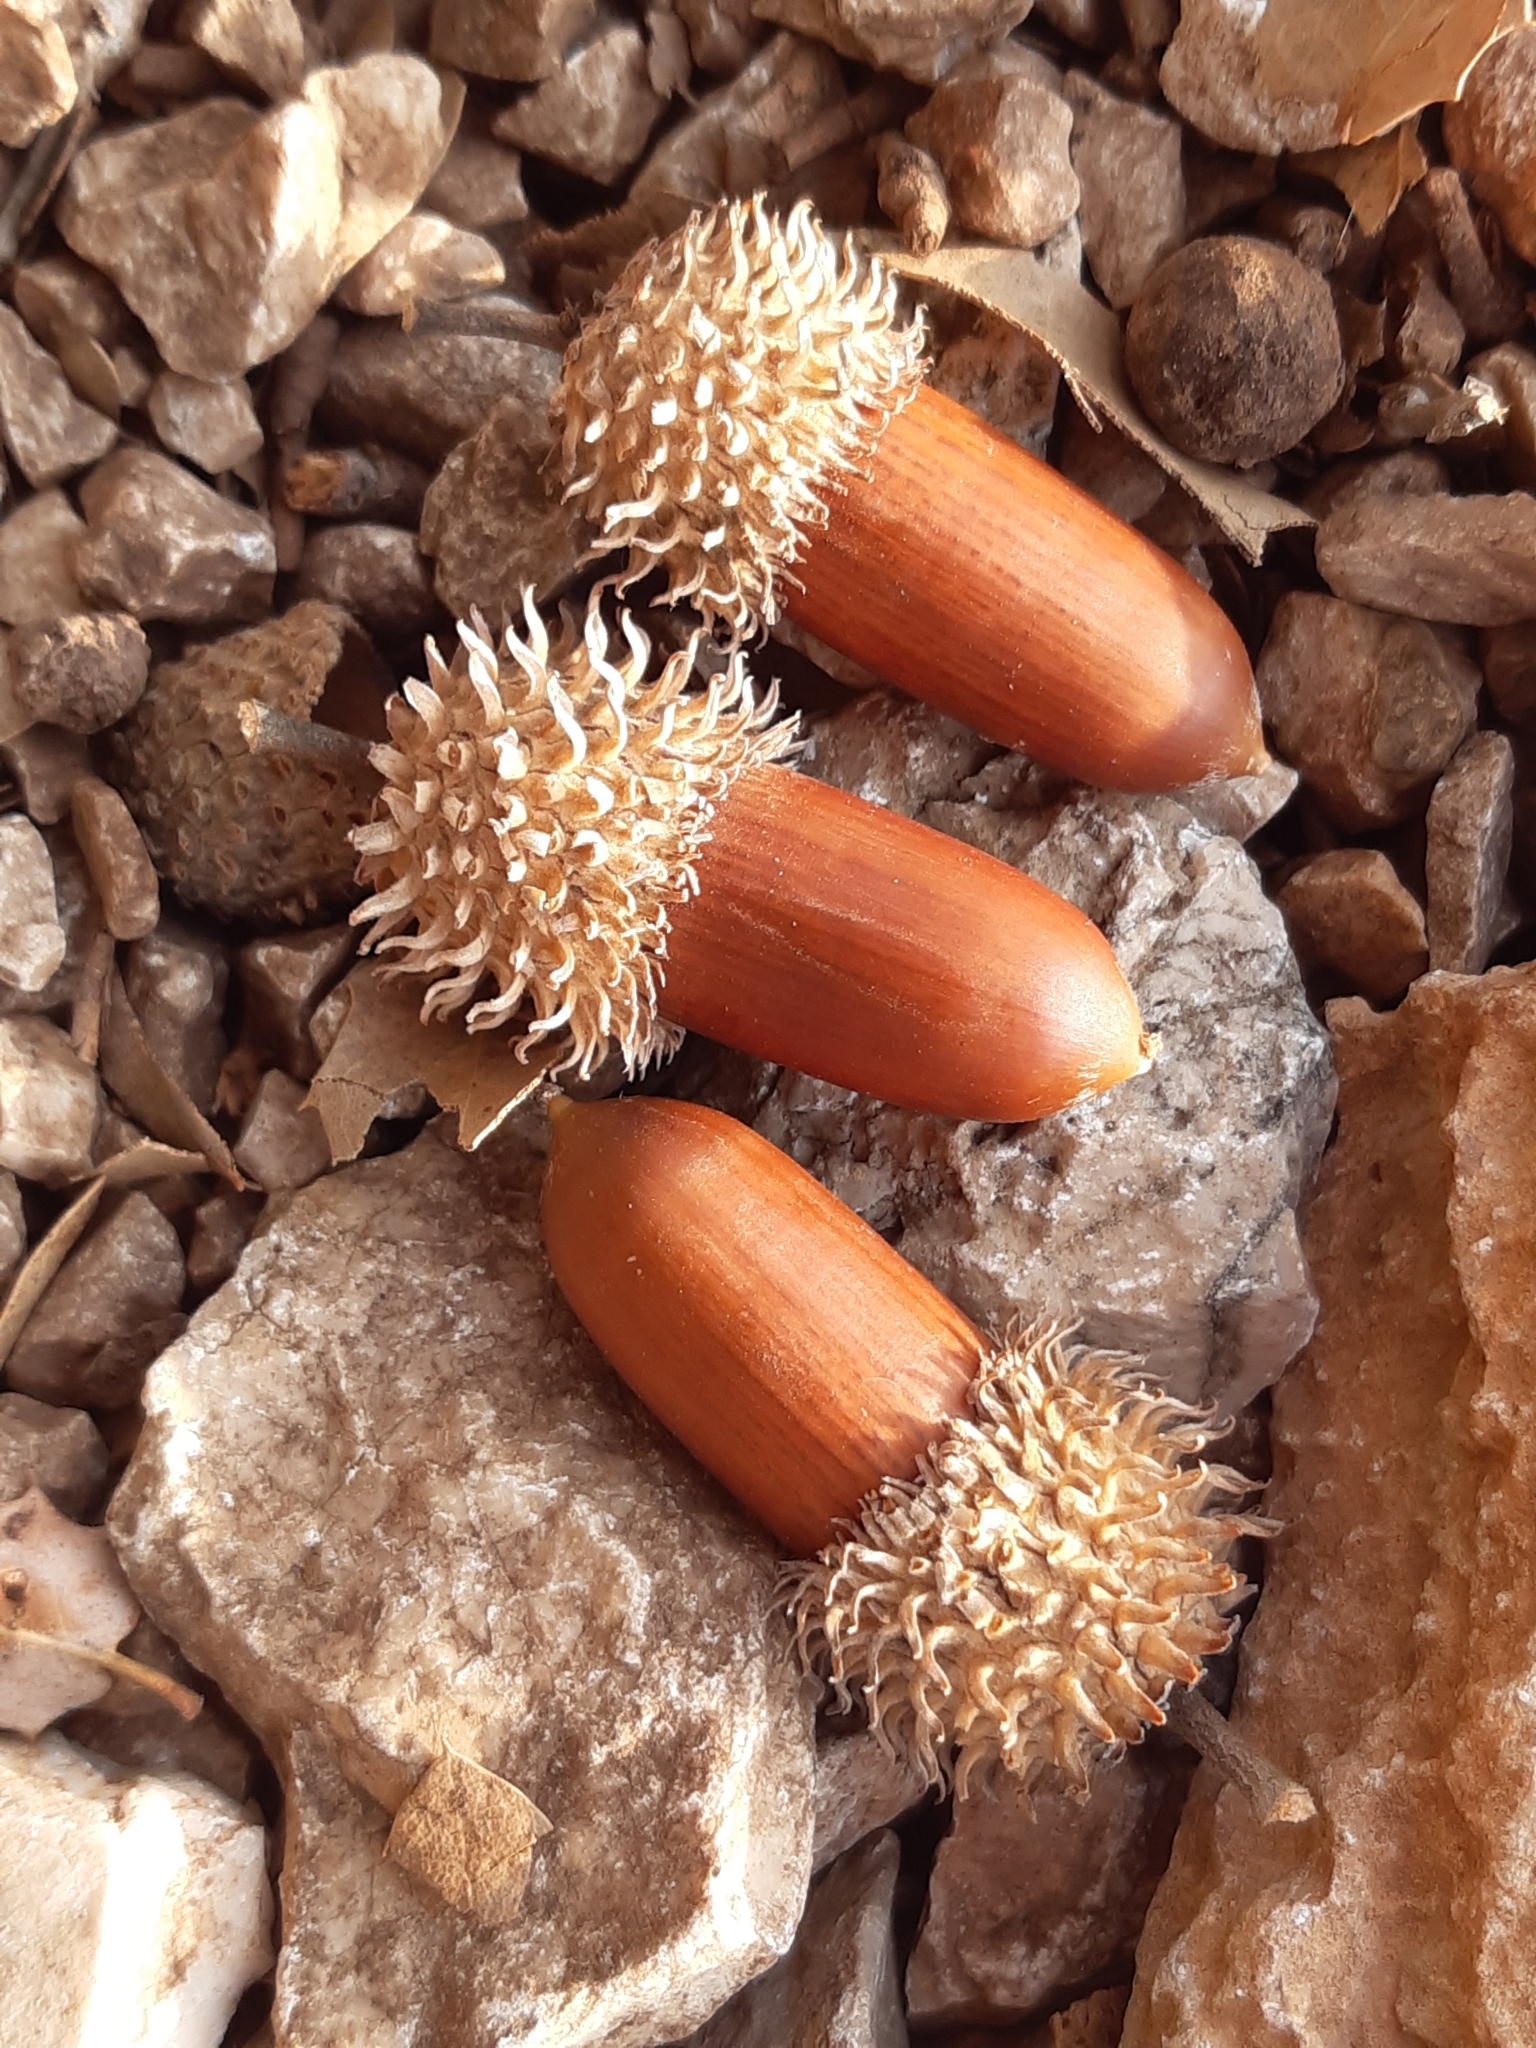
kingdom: Plantae
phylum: Tracheophyta
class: Magnoliopsida
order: Fagales
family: Fagaceae
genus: Quercus
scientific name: Quercus coccifera
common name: Kermes oak
